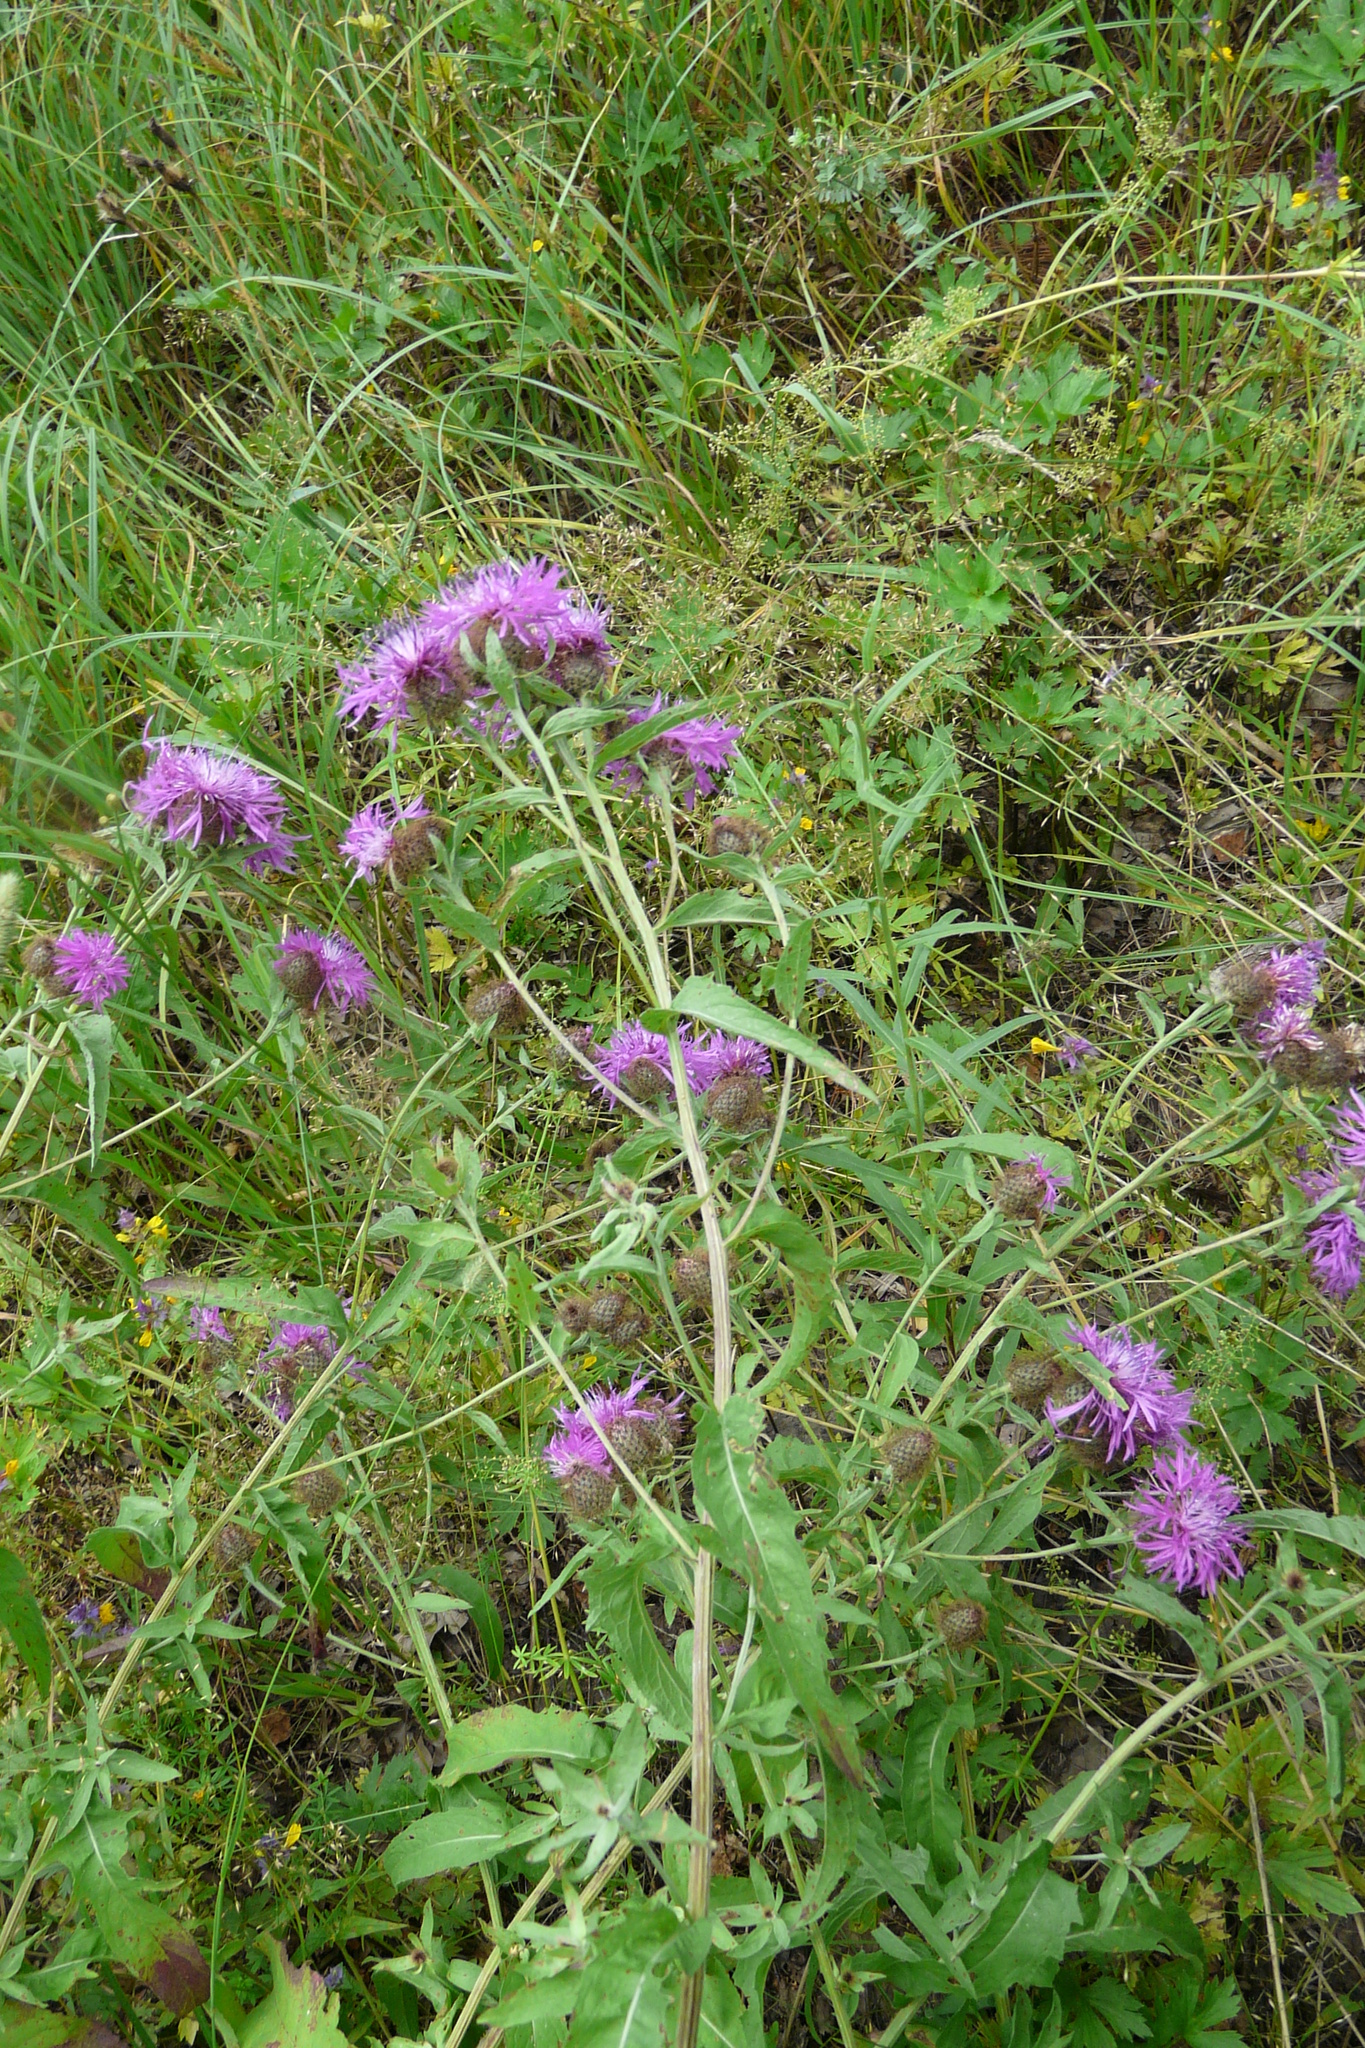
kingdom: Plantae
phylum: Tracheophyta
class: Magnoliopsida
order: Asterales
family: Asteraceae
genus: Centaurea
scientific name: Centaurea pseudophrygia
